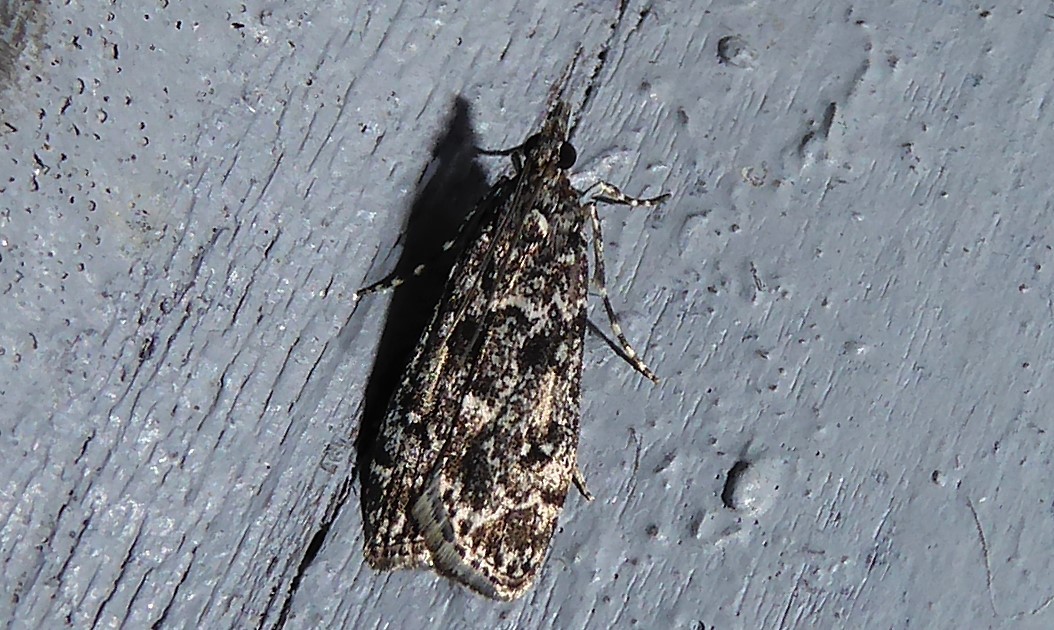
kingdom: Animalia
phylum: Arthropoda
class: Insecta
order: Lepidoptera
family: Crambidae
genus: Eudonia
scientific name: Eudonia philerga
